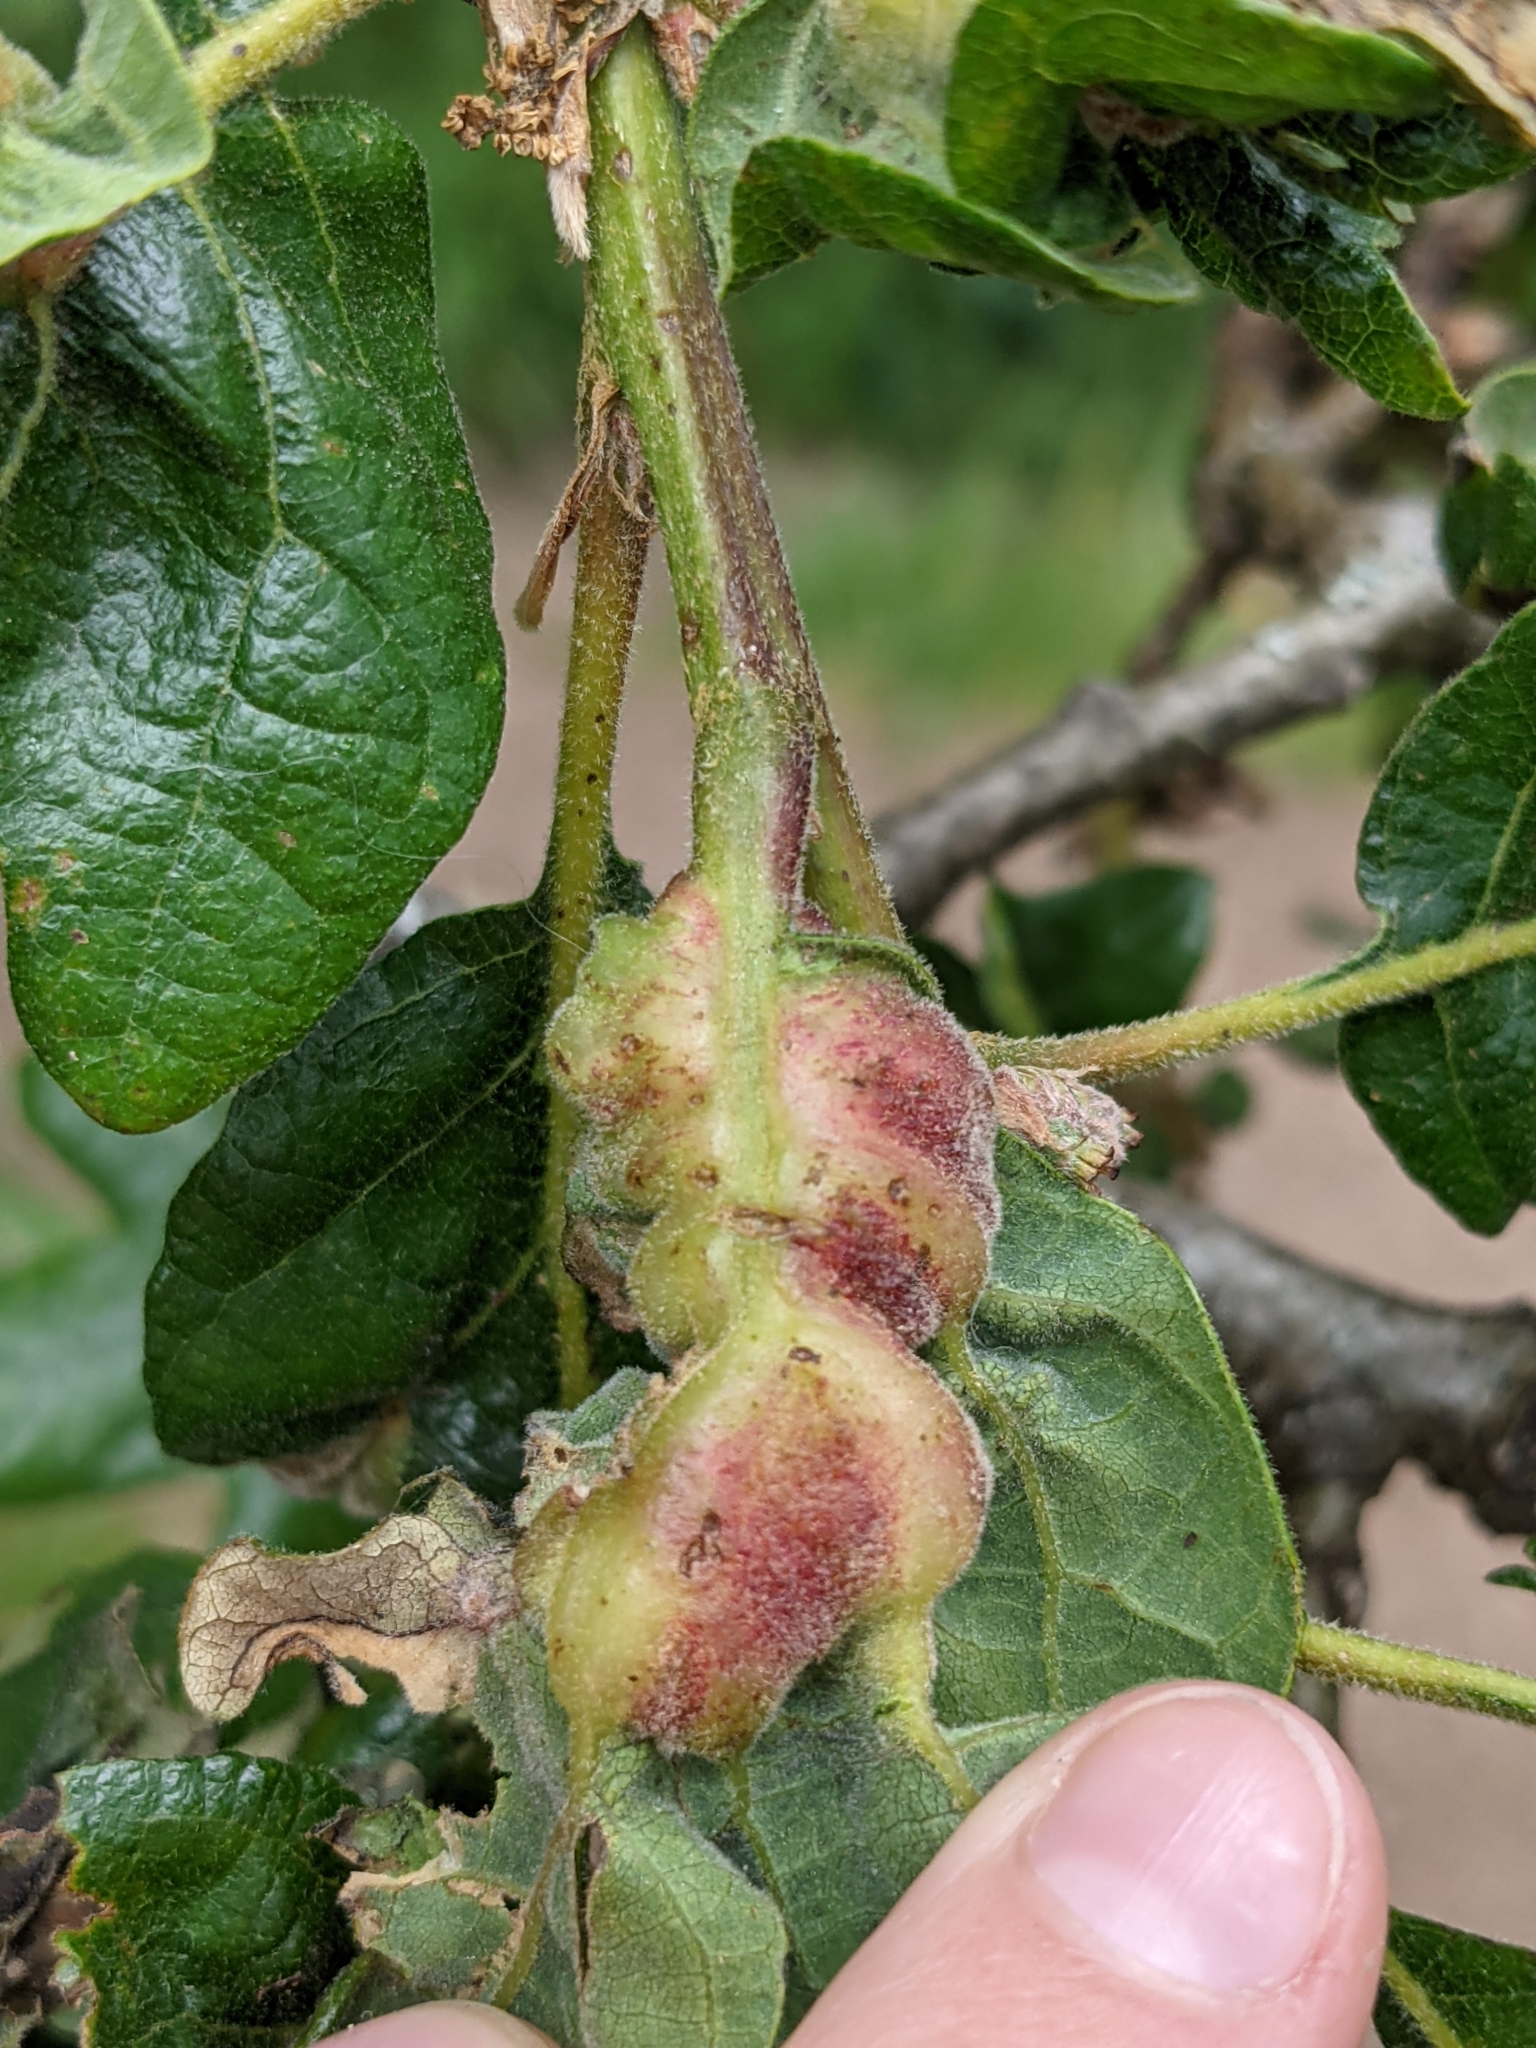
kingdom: Animalia
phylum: Arthropoda
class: Insecta
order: Hymenoptera
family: Cynipidae
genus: Neuroterus
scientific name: Neuroterus
